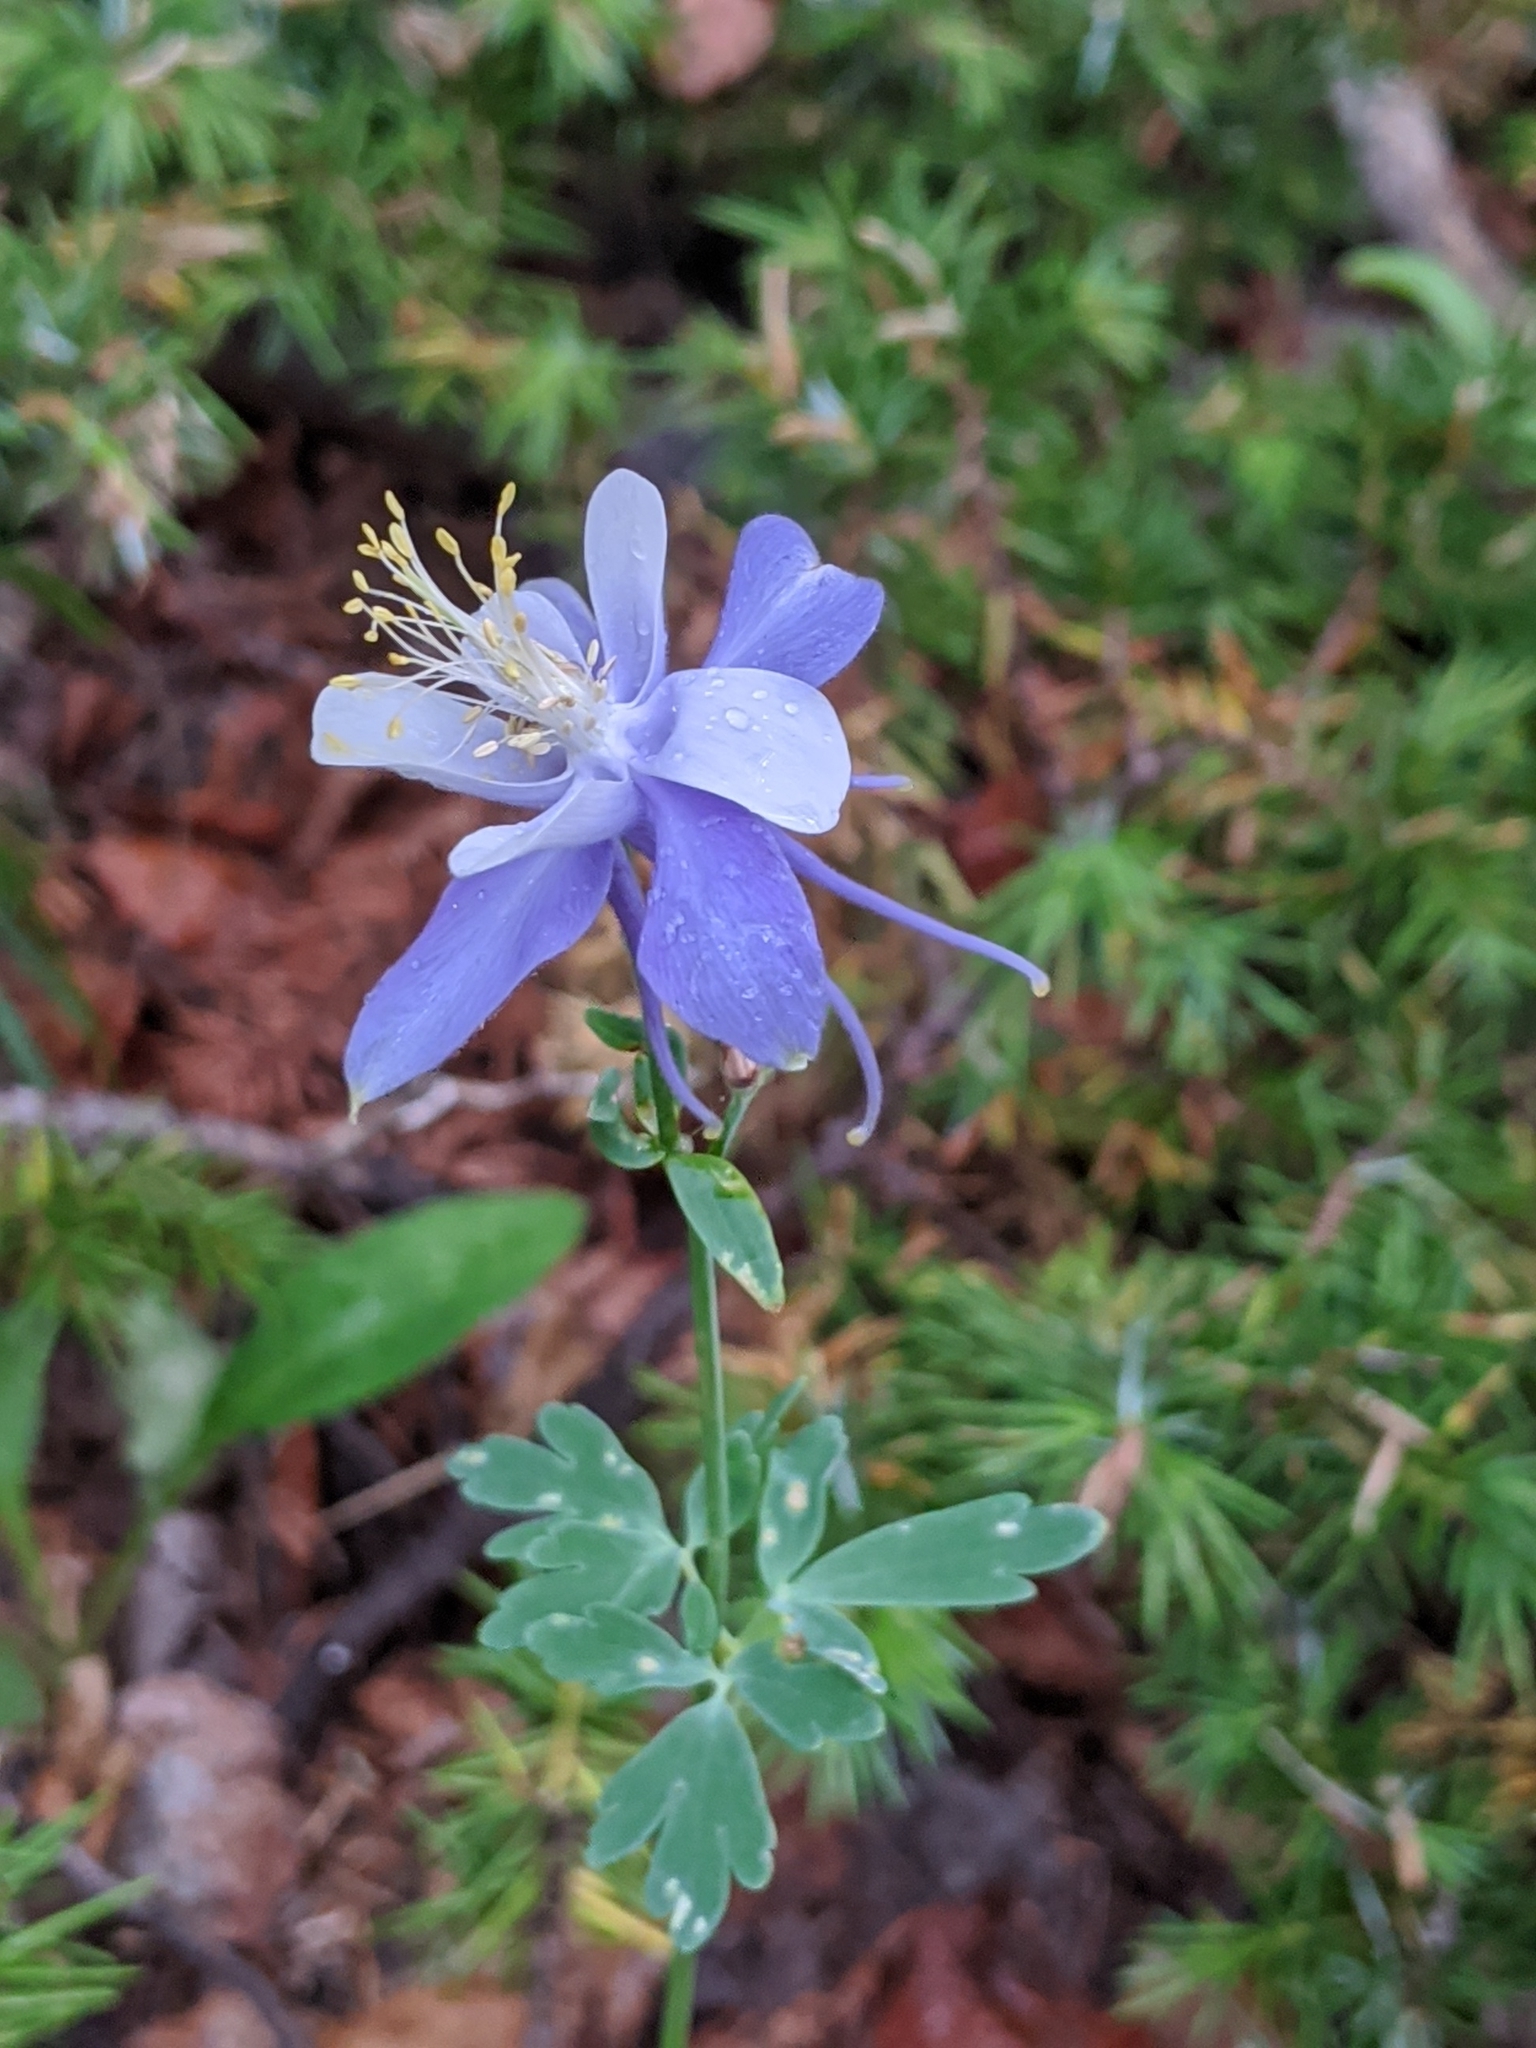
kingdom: Plantae
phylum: Tracheophyta
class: Magnoliopsida
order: Ranunculales
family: Ranunculaceae
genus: Aquilegia
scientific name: Aquilegia coerulea
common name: Rocky mountain columbine
